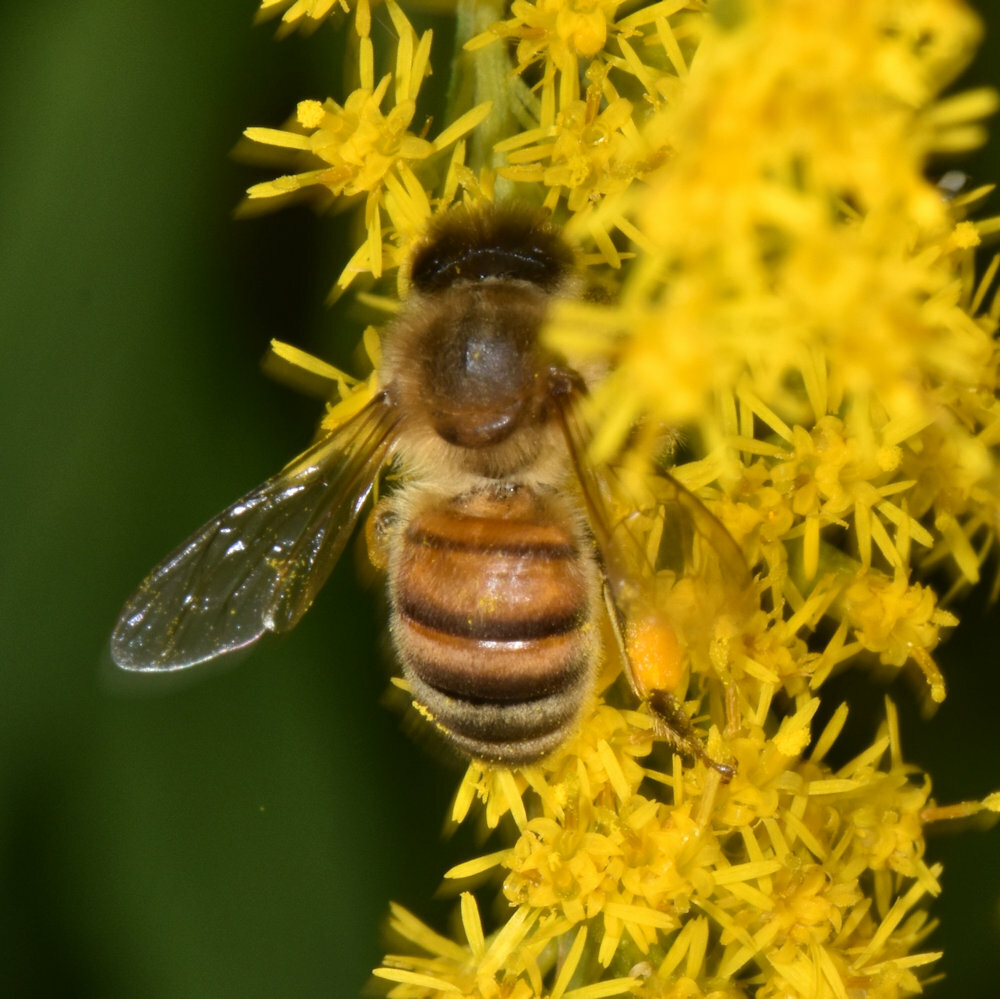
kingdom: Animalia
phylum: Arthropoda
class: Insecta
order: Hymenoptera
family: Apidae
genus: Apis
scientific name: Apis mellifera
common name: Honey bee
